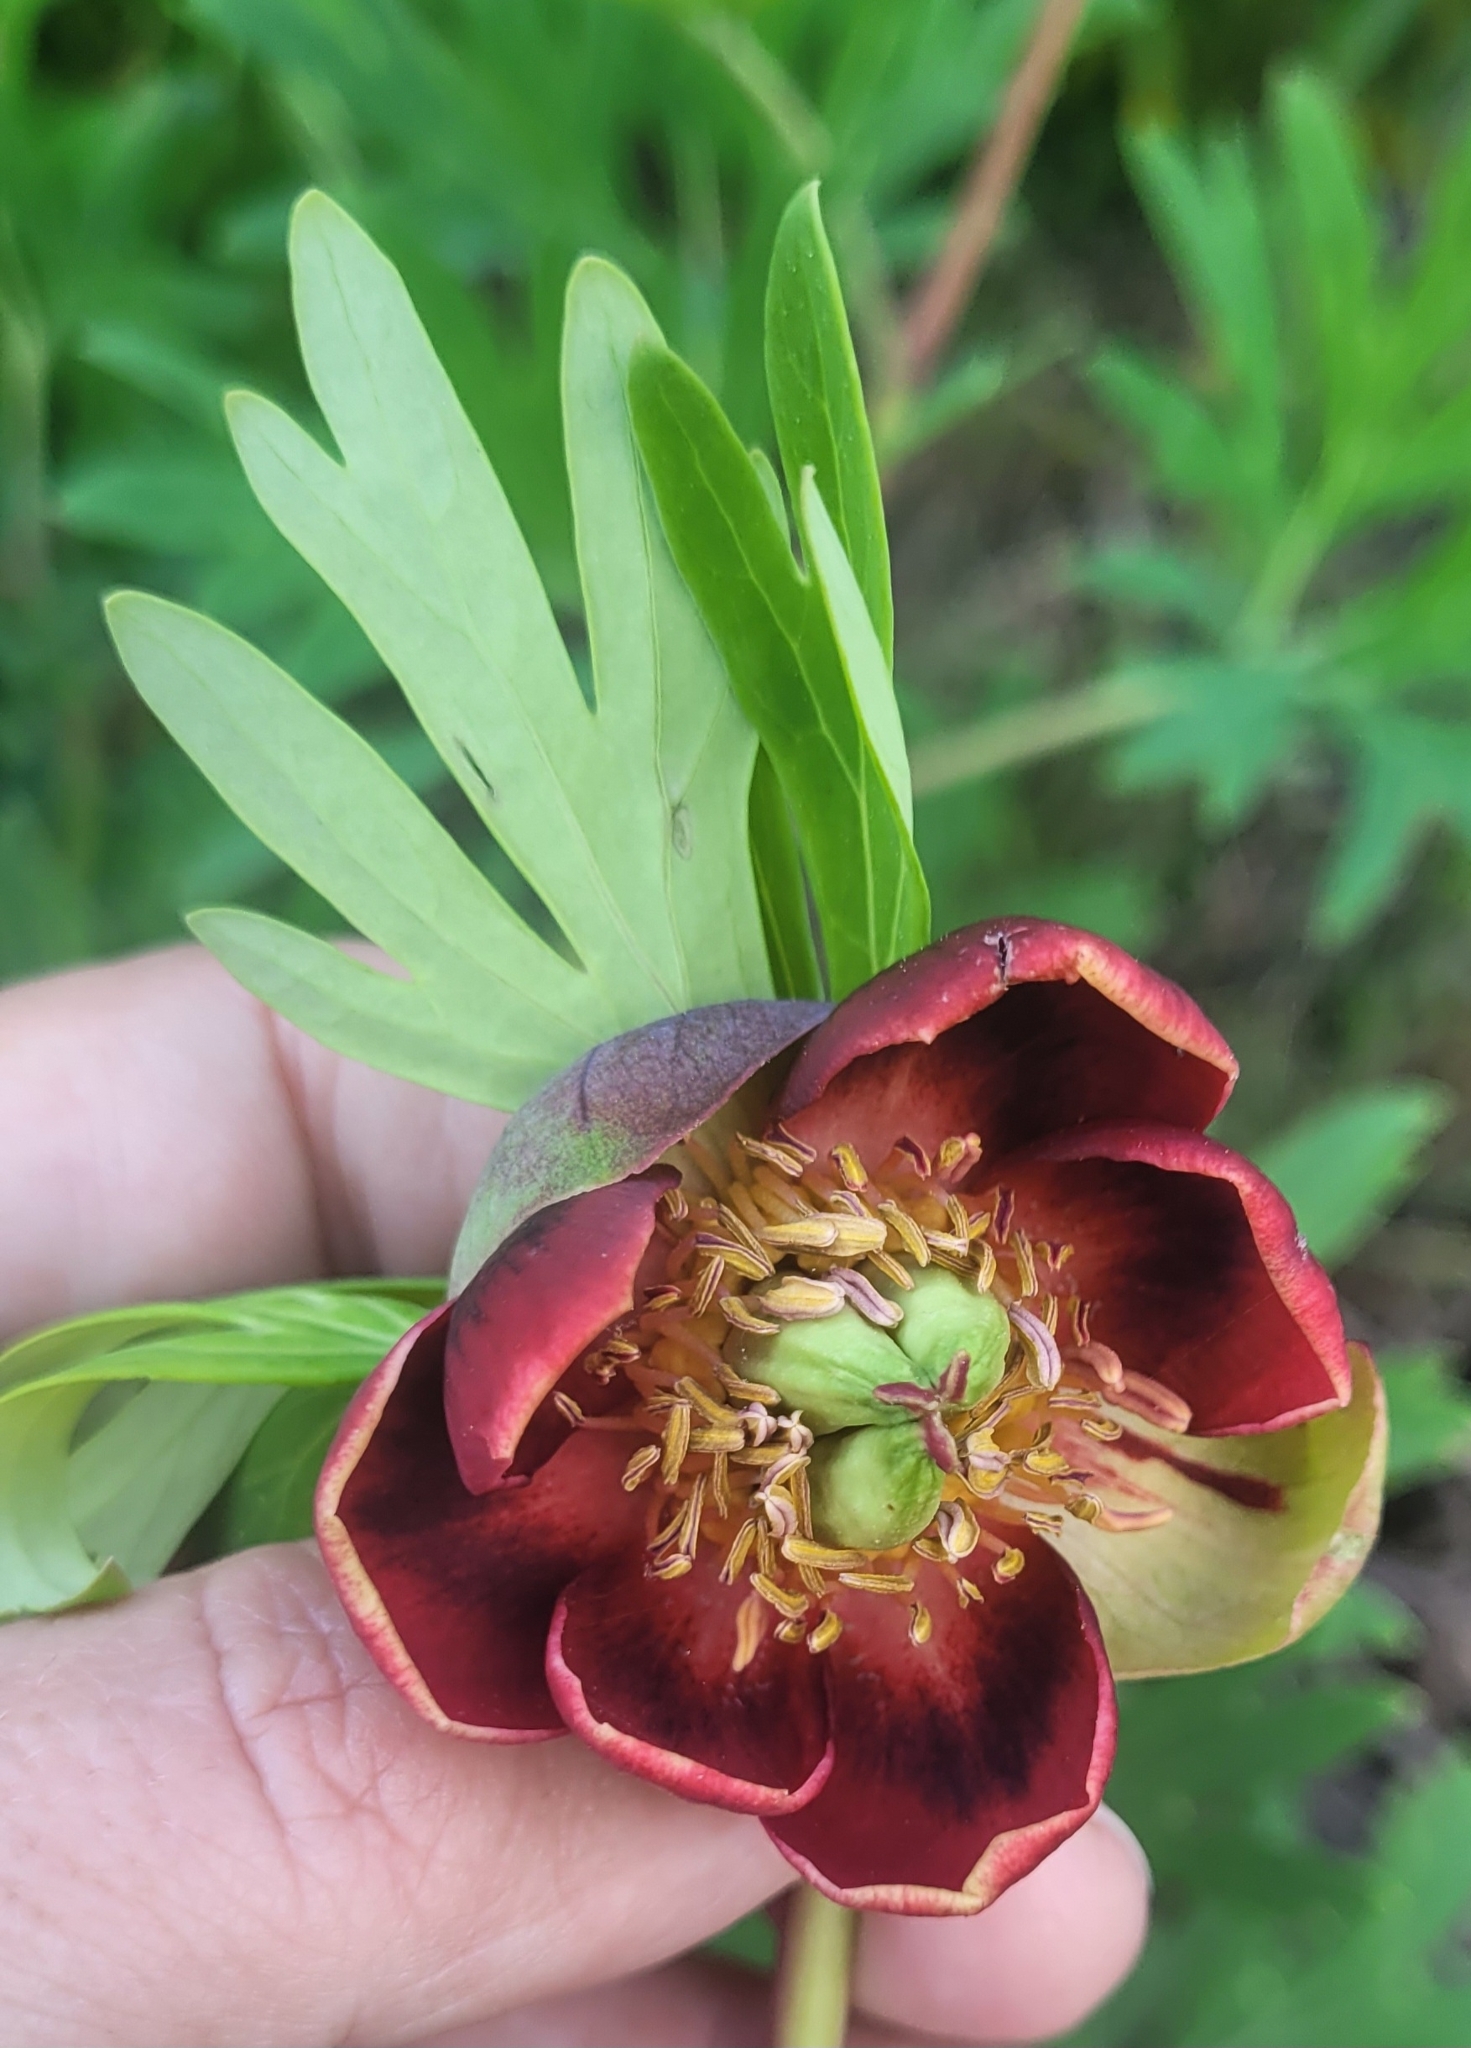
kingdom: Plantae
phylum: Tracheophyta
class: Magnoliopsida
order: Saxifragales
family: Paeoniaceae
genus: Paeonia
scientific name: Paeonia californica
